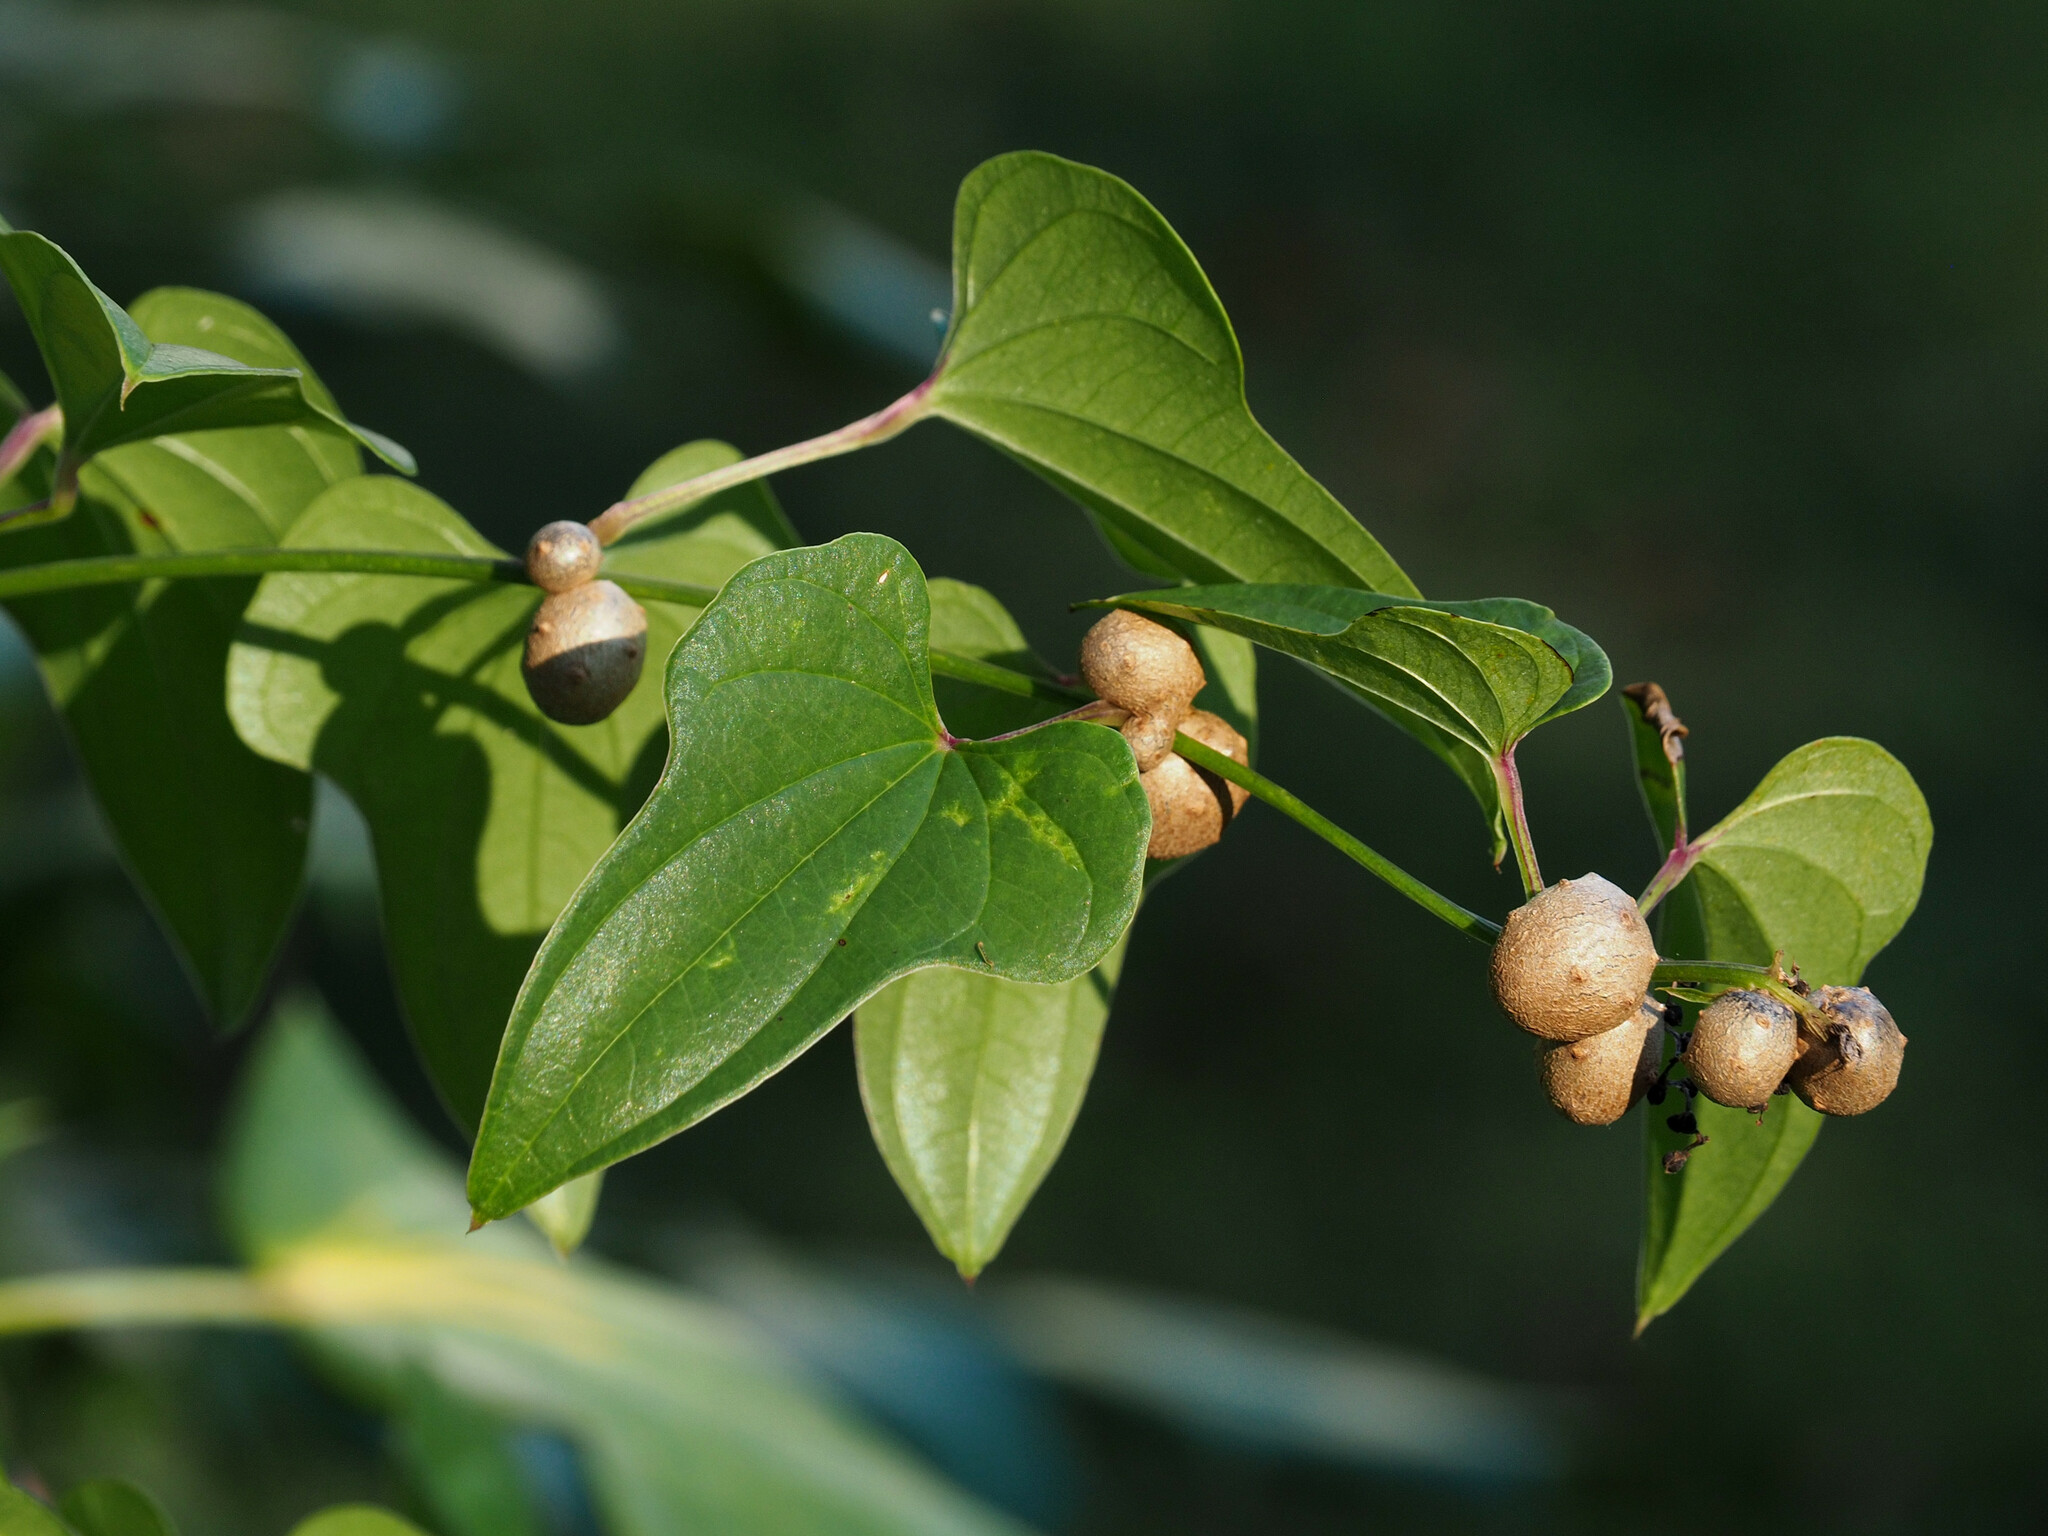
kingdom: Plantae
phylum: Tracheophyta
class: Liliopsida
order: Dioscoreales
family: Dioscoreaceae
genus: Dioscorea
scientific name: Dioscorea polystachya
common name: Chinese yam
